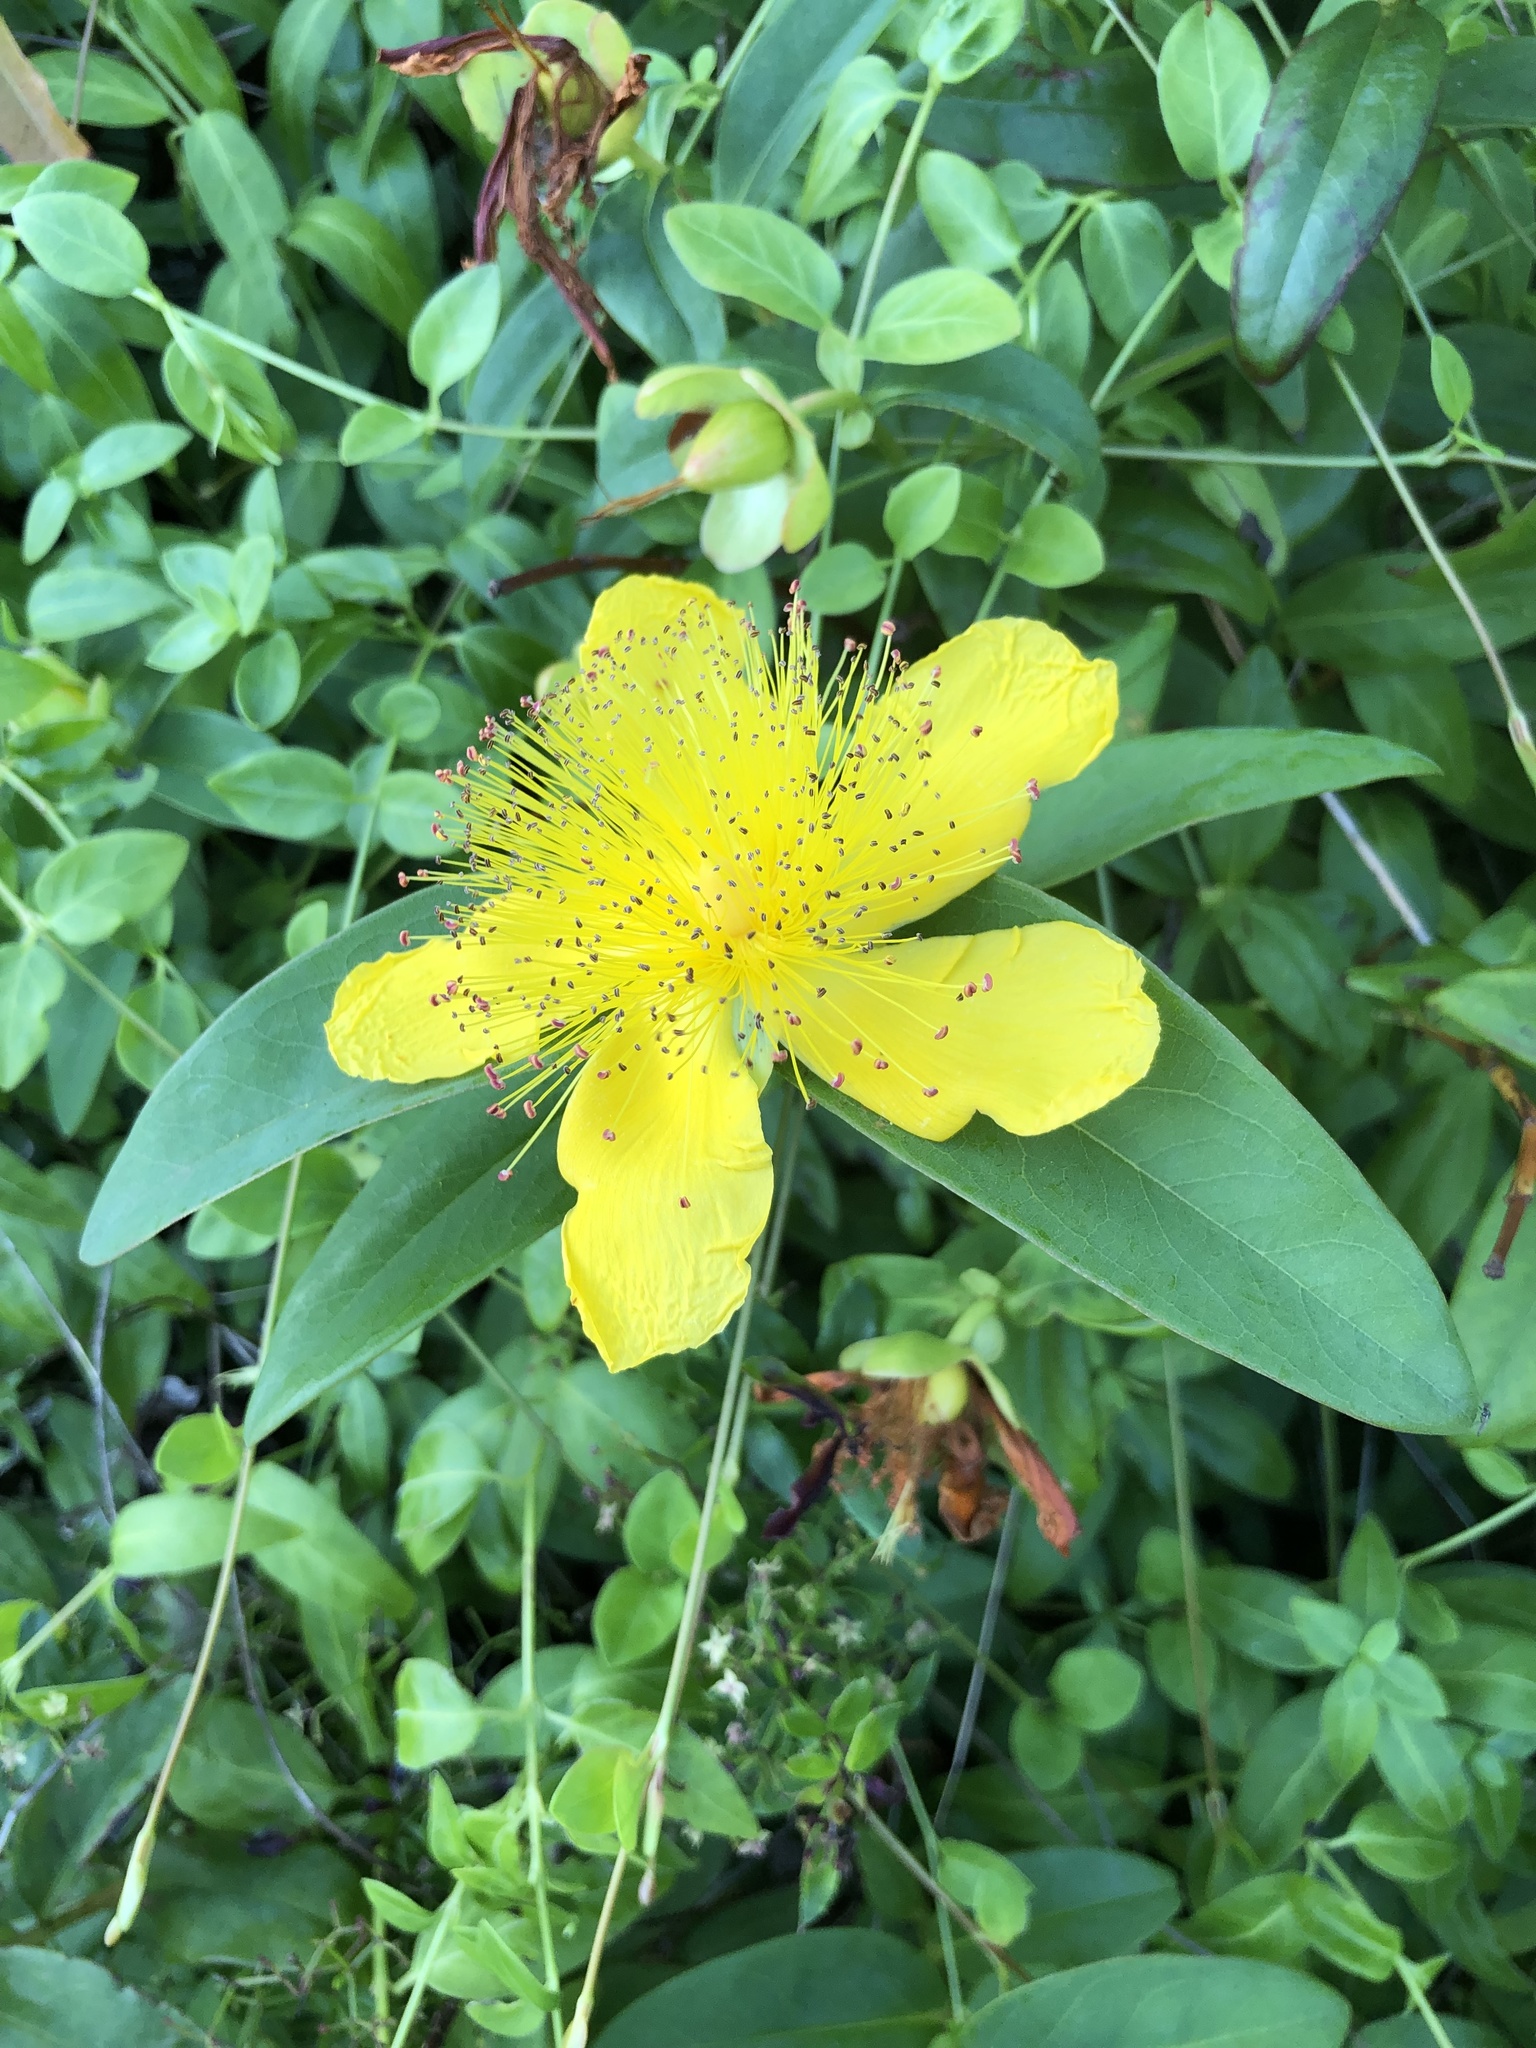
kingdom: Plantae
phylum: Tracheophyta
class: Magnoliopsida
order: Malpighiales
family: Hypericaceae
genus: Hypericum
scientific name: Hypericum calycinum
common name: Rose-of-sharon
